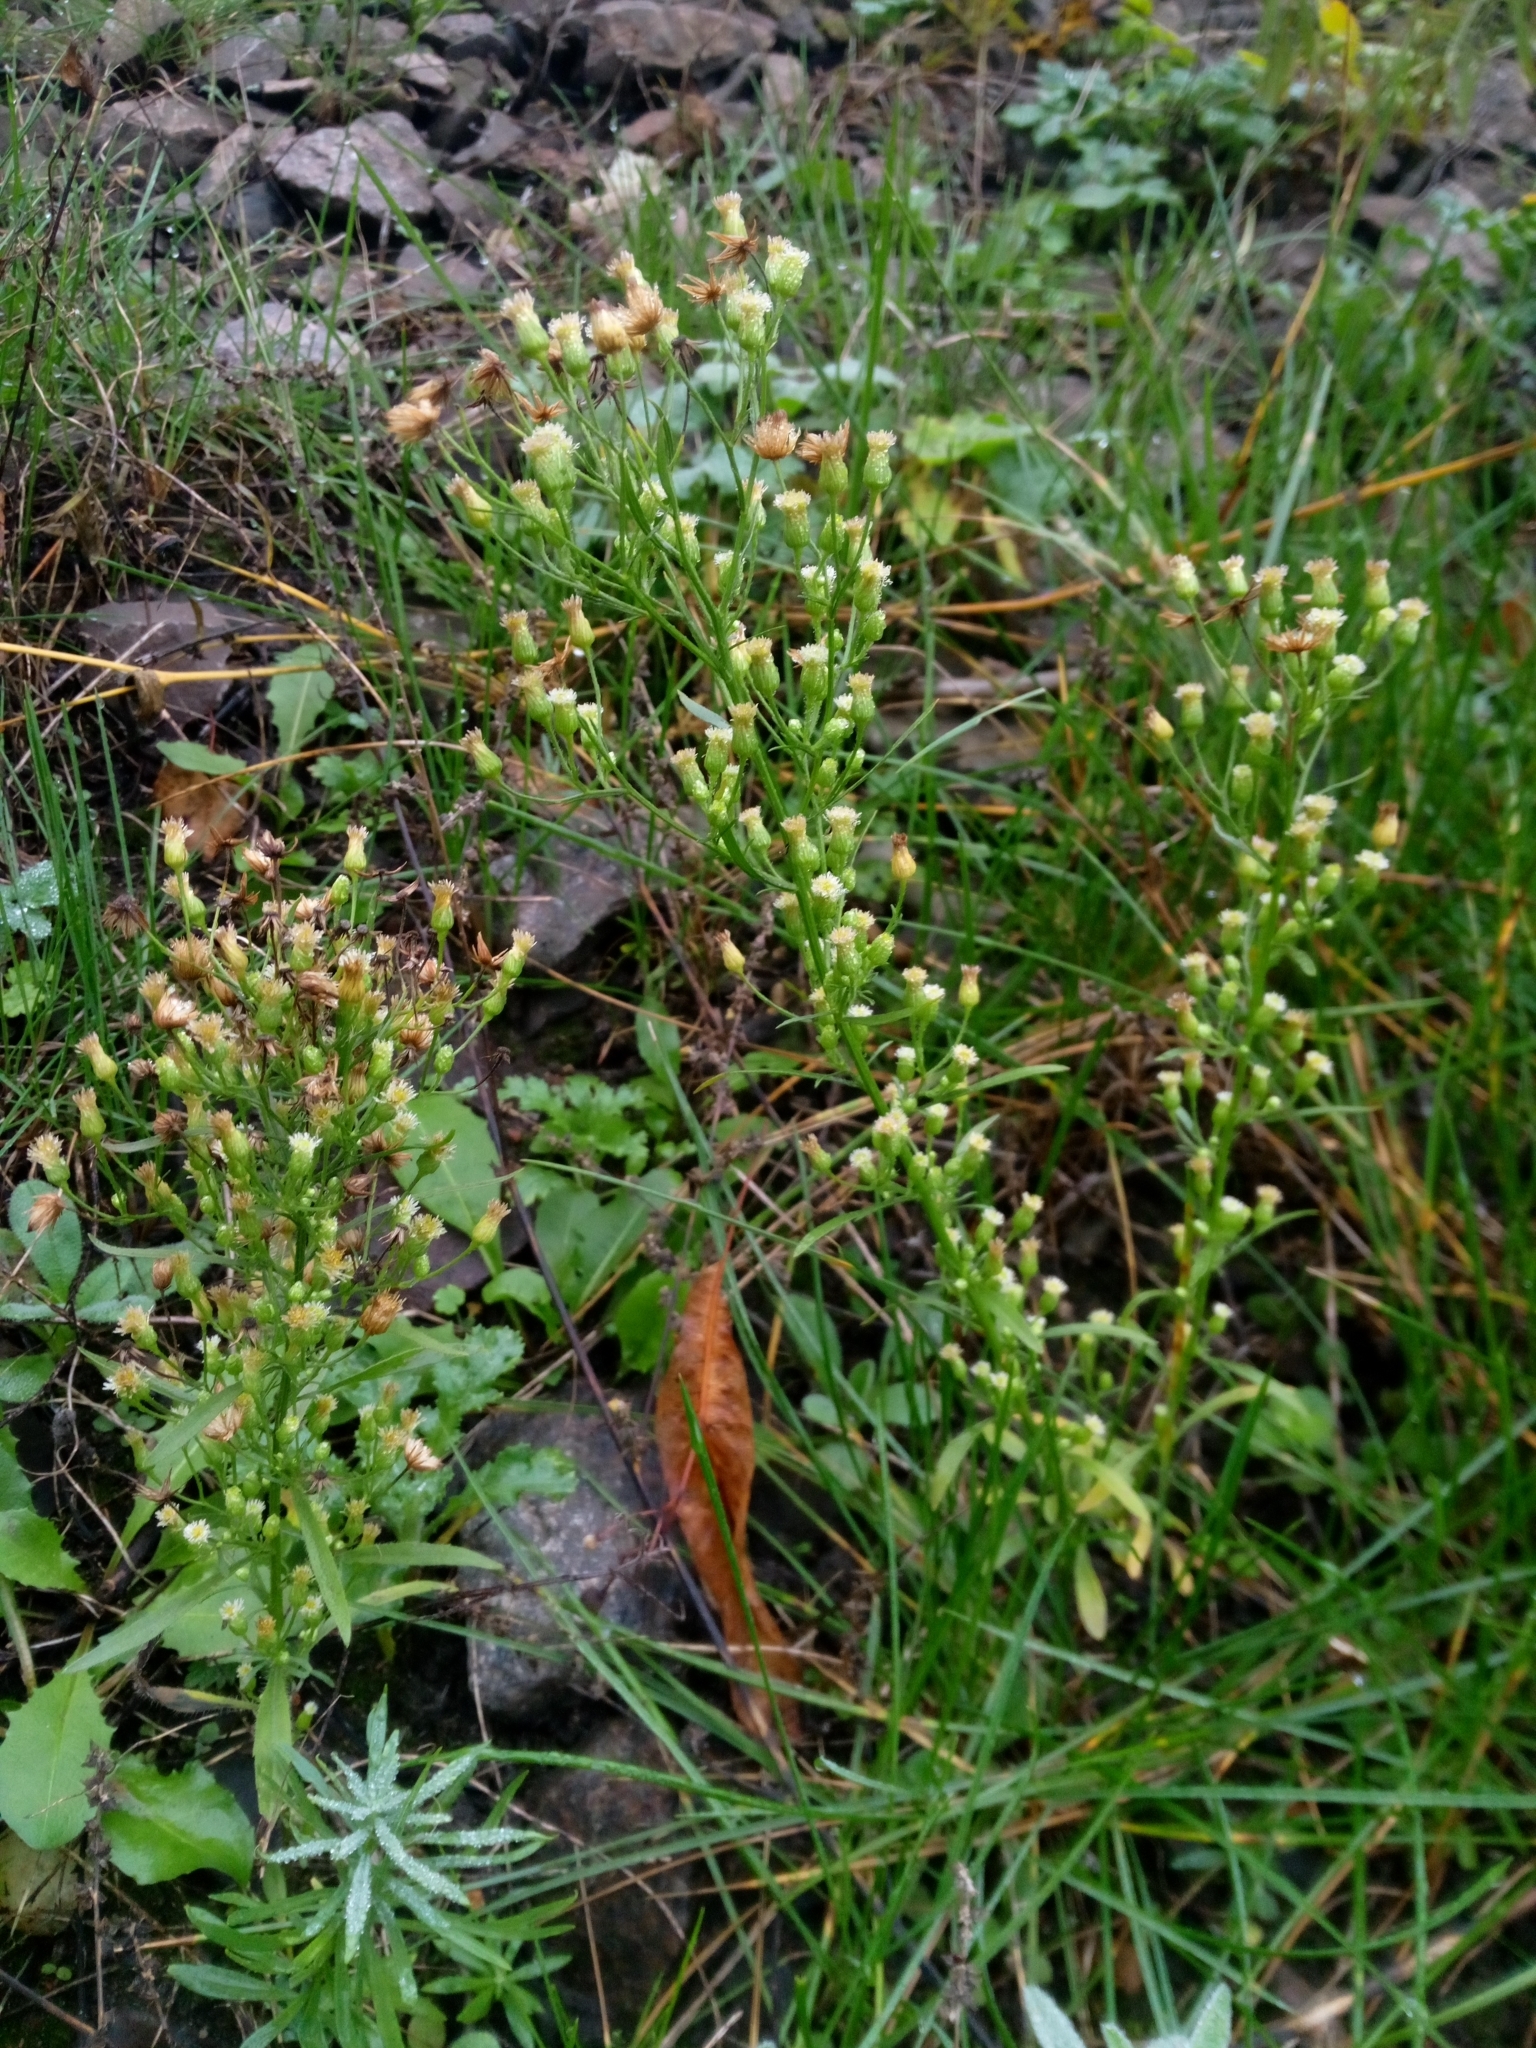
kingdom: Plantae
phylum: Tracheophyta
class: Magnoliopsida
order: Asterales
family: Asteraceae
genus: Erigeron
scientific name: Erigeron canadensis
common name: Canadian fleabane
